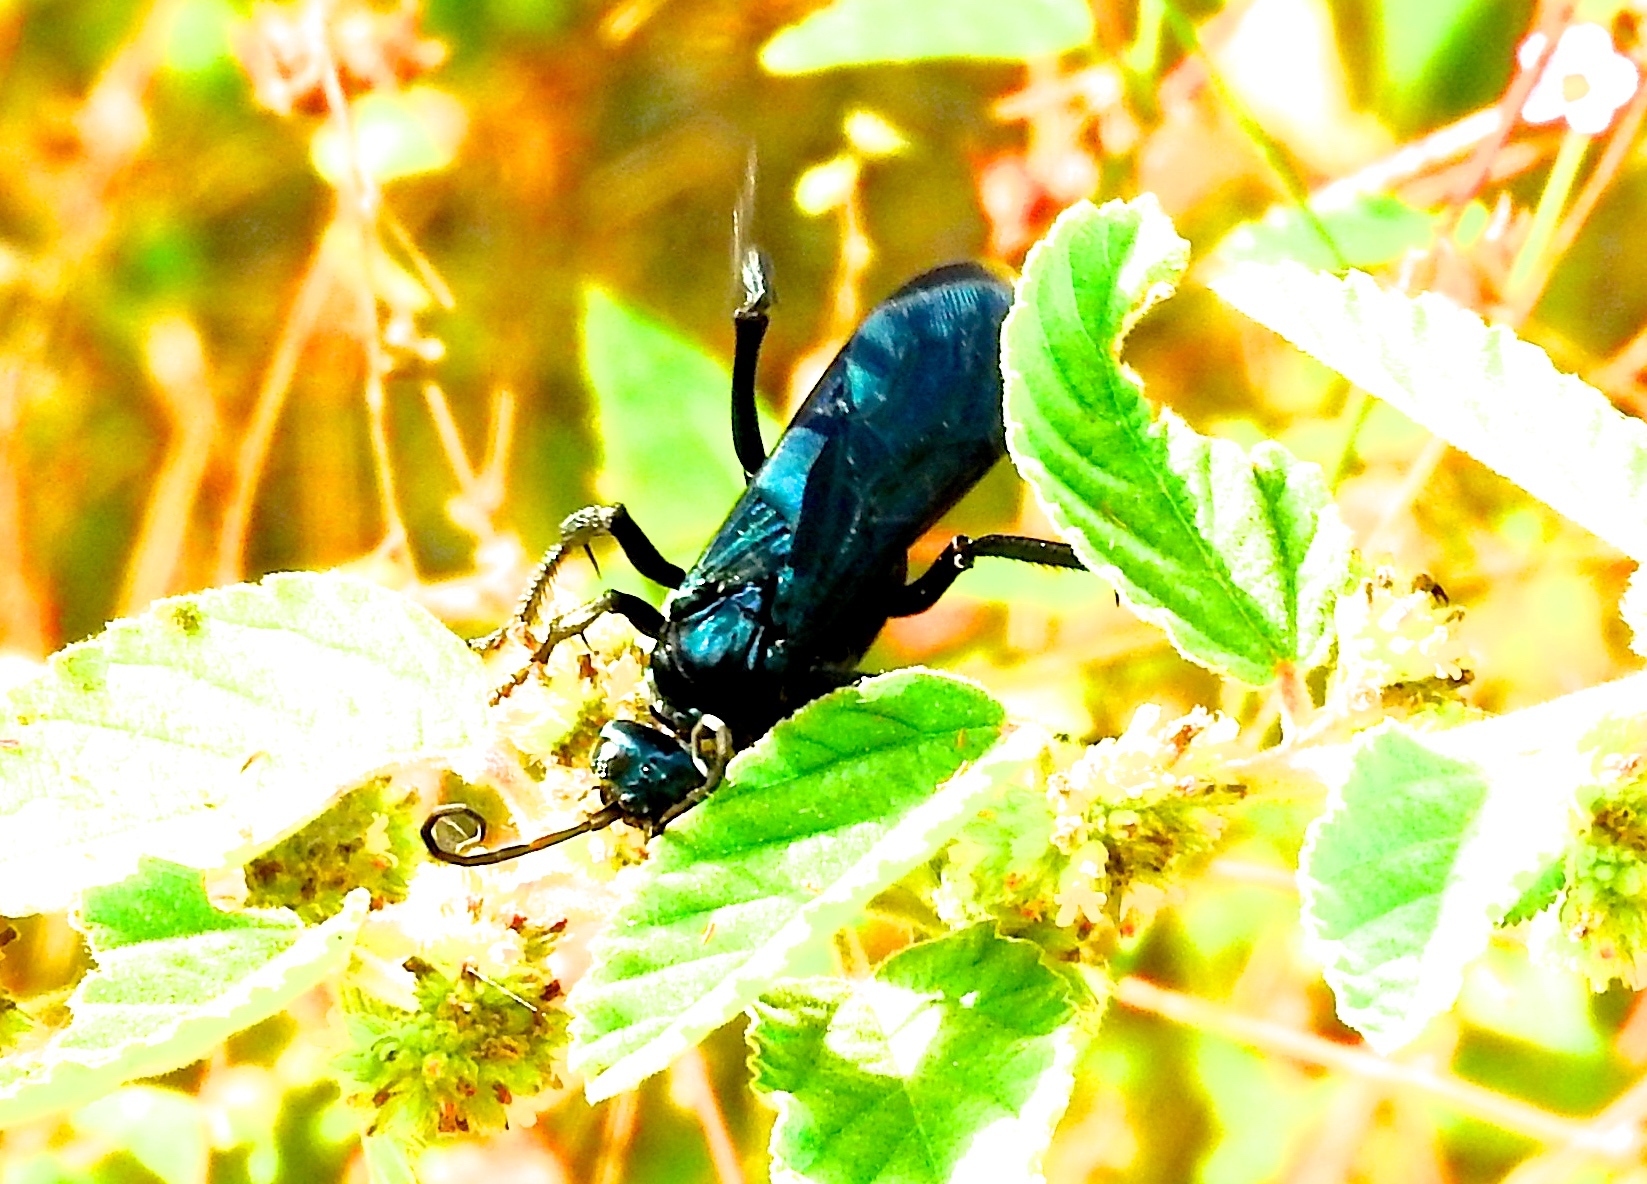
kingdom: Animalia
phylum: Arthropoda
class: Insecta
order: Hymenoptera
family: Pompilidae
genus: Pepsis
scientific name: Pepsis mexicana
